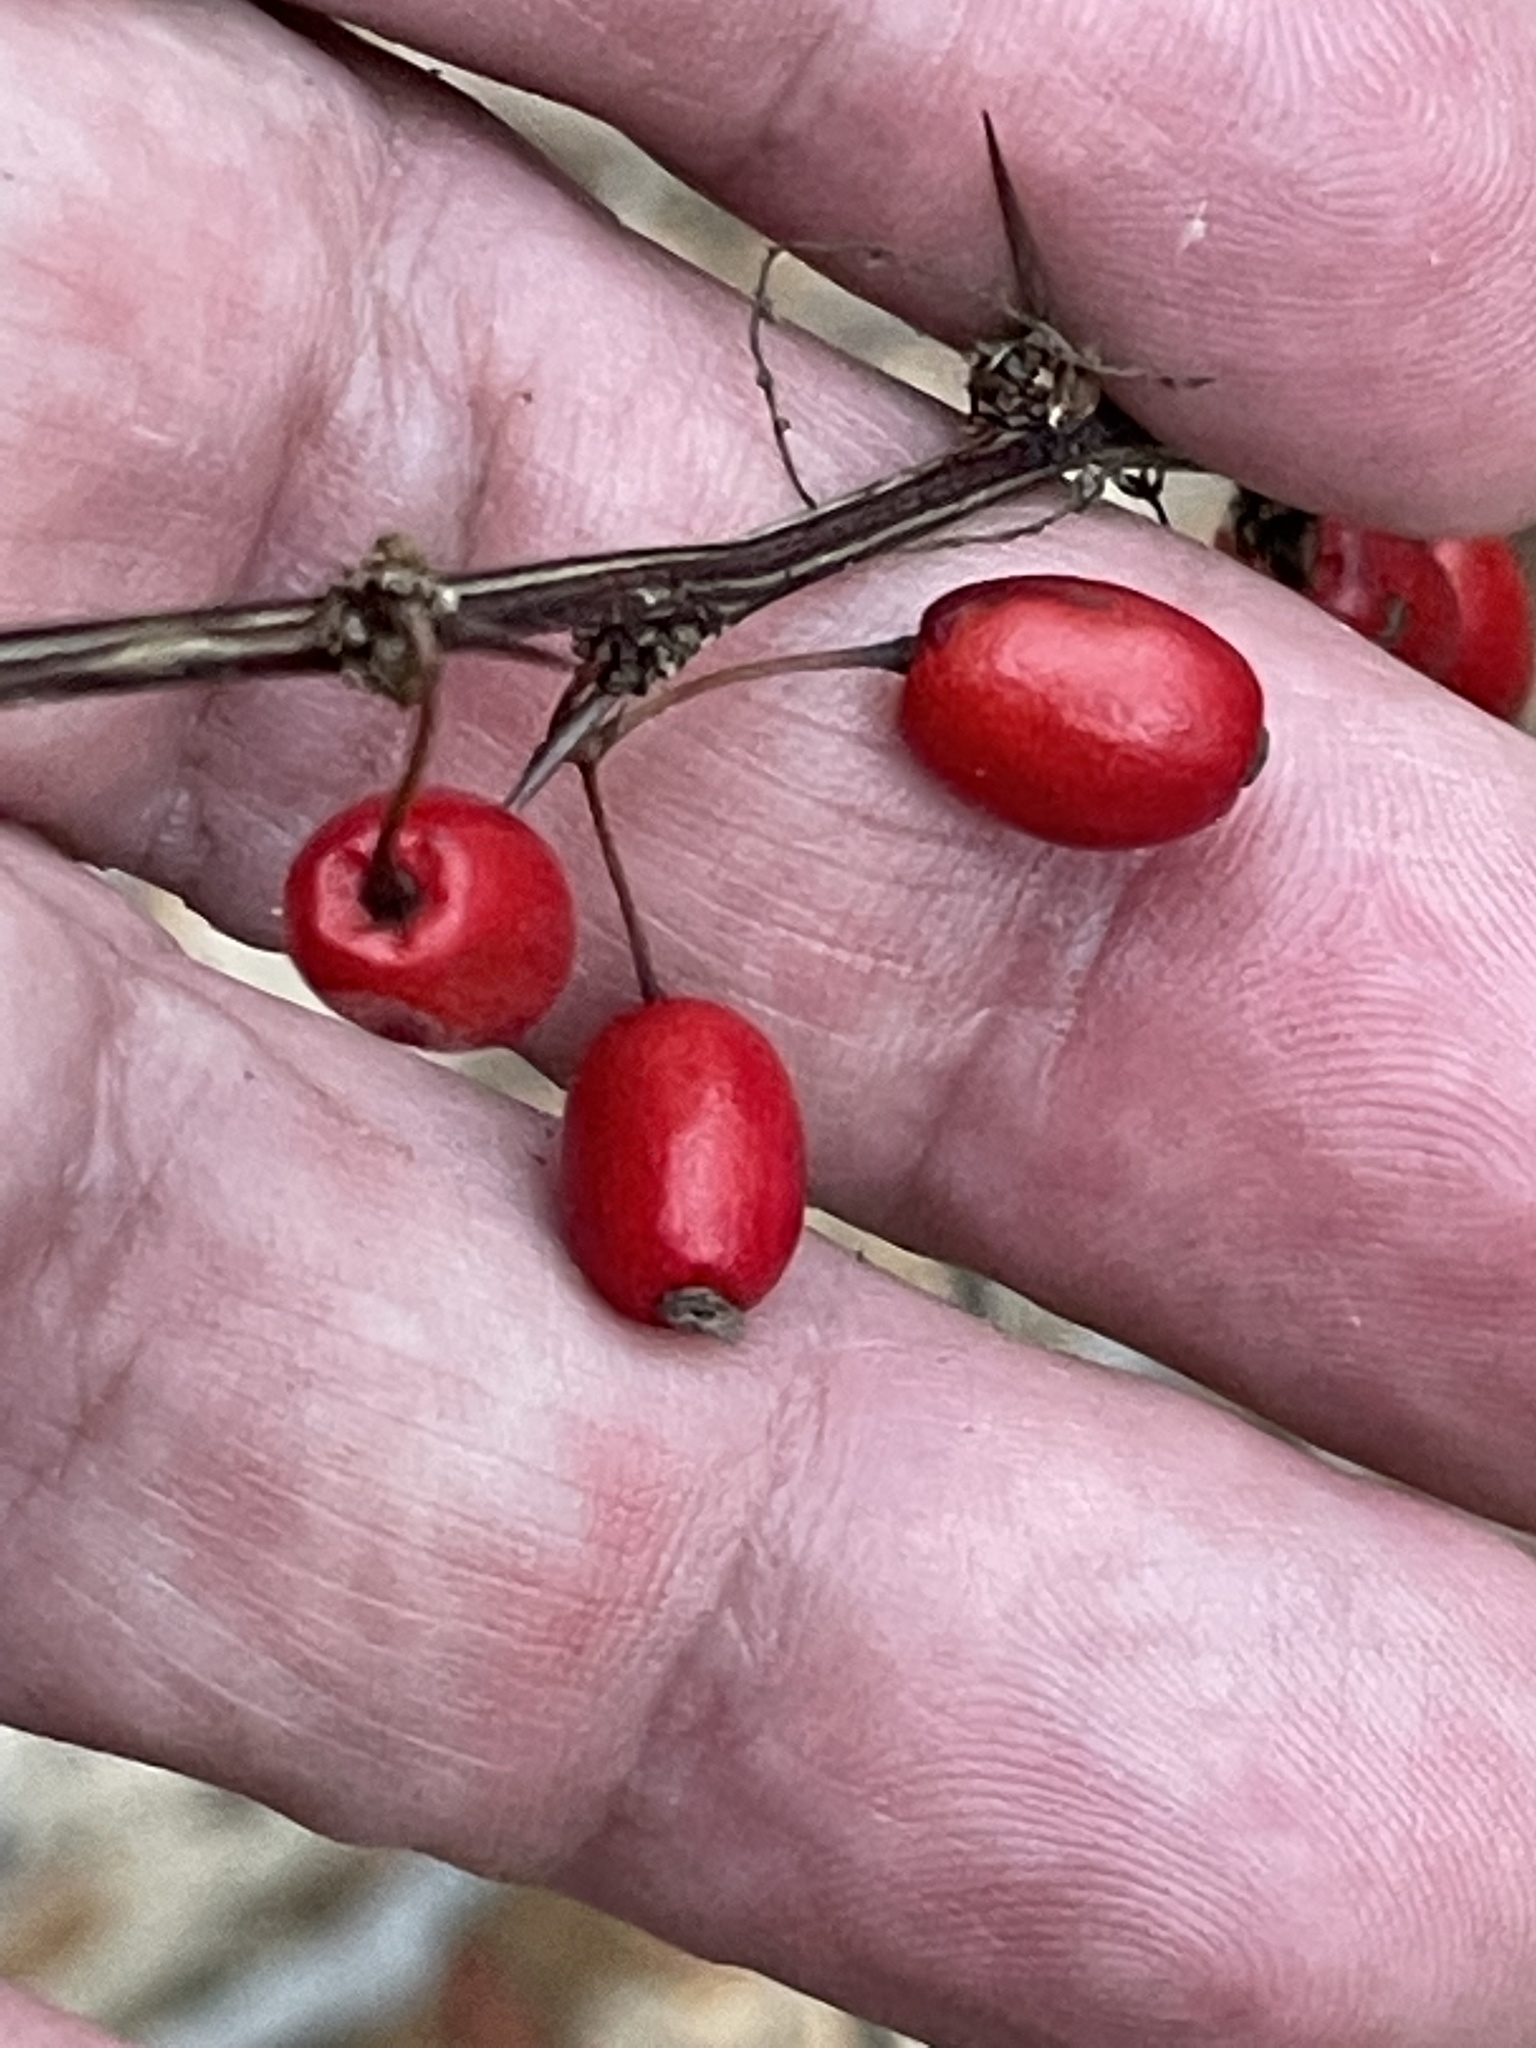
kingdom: Plantae
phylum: Tracheophyta
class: Magnoliopsida
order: Ranunculales
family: Berberidaceae
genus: Berberis
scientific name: Berberis thunbergii
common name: Japanese barberry
